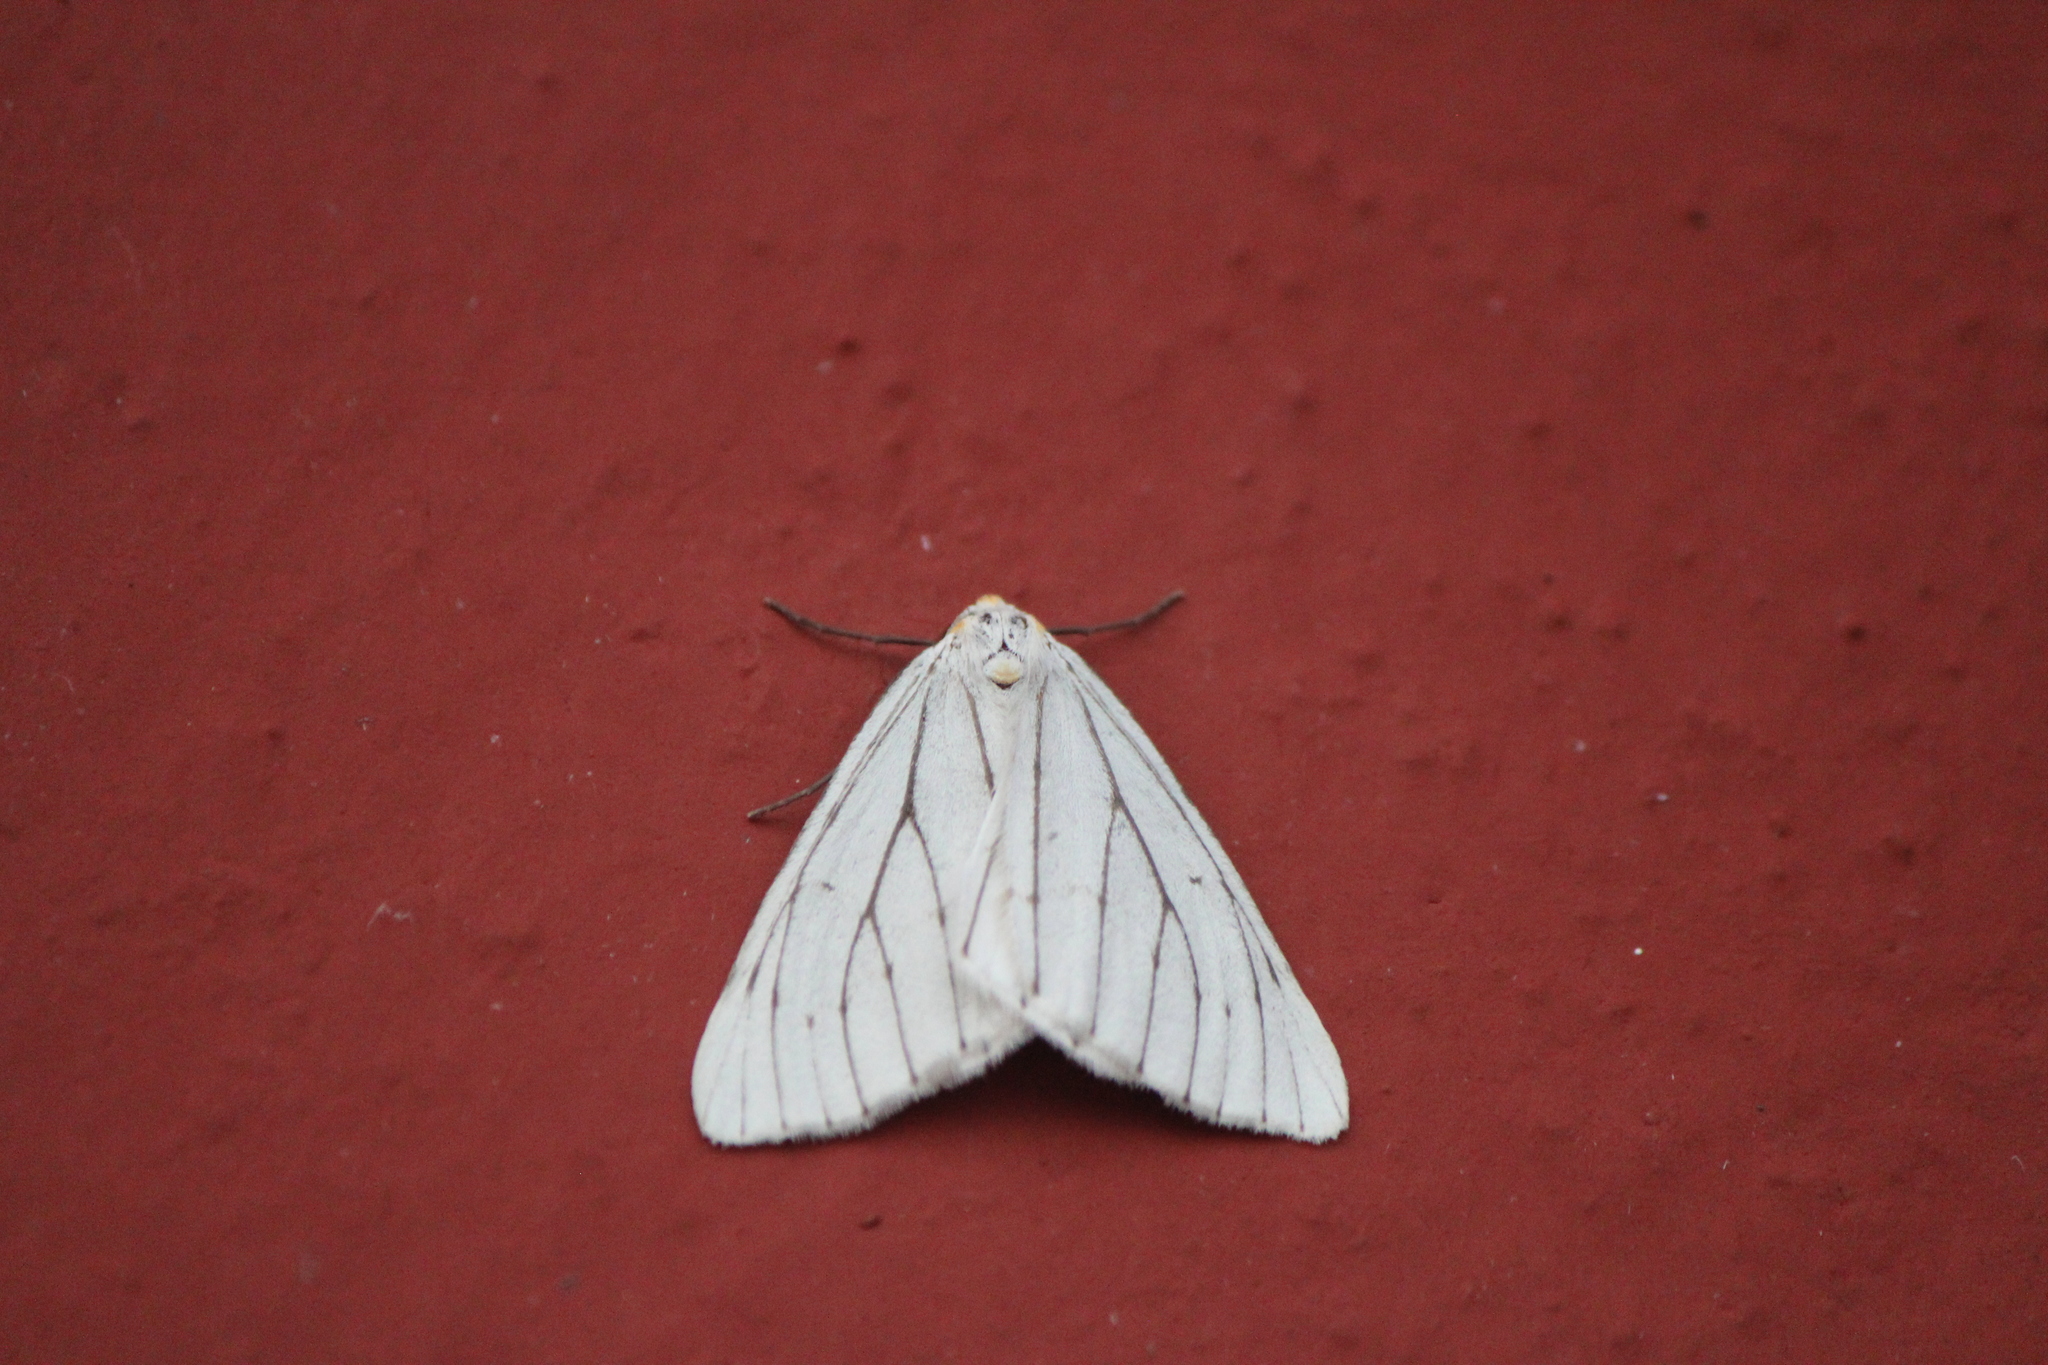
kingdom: Animalia
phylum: Arthropoda
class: Insecta
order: Lepidoptera
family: Geometridae
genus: Neuromelia
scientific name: Neuromelia selectata
